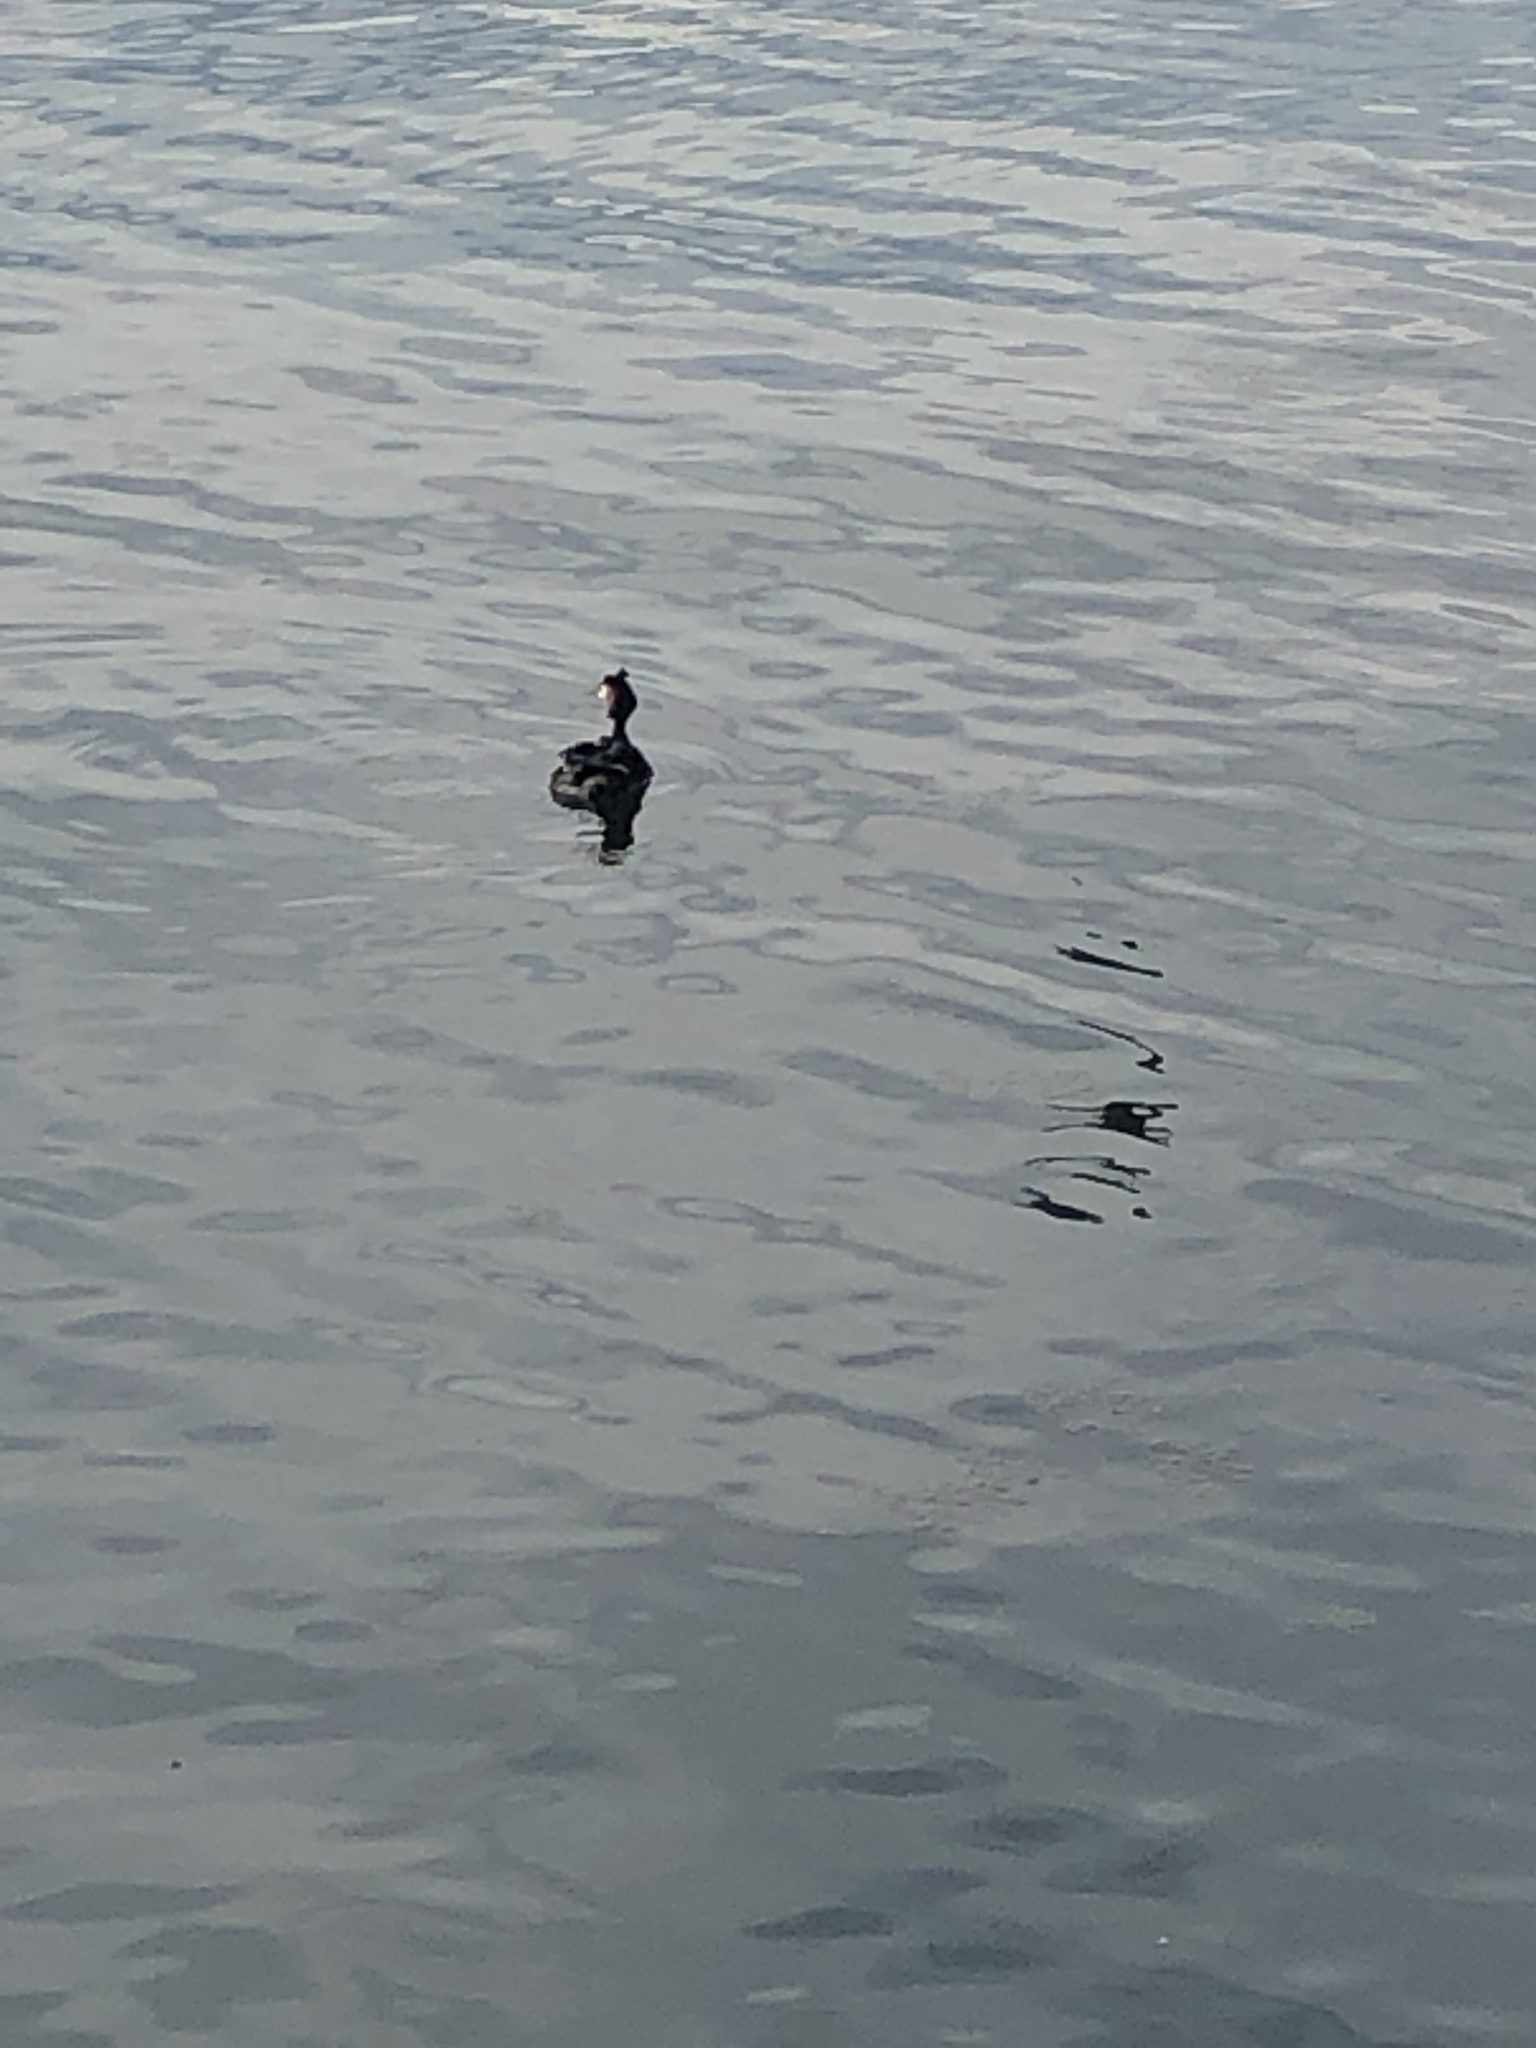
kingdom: Animalia
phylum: Chordata
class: Aves
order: Podicipediformes
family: Podicipedidae
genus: Podiceps
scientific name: Podiceps cristatus
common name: Great crested grebe
